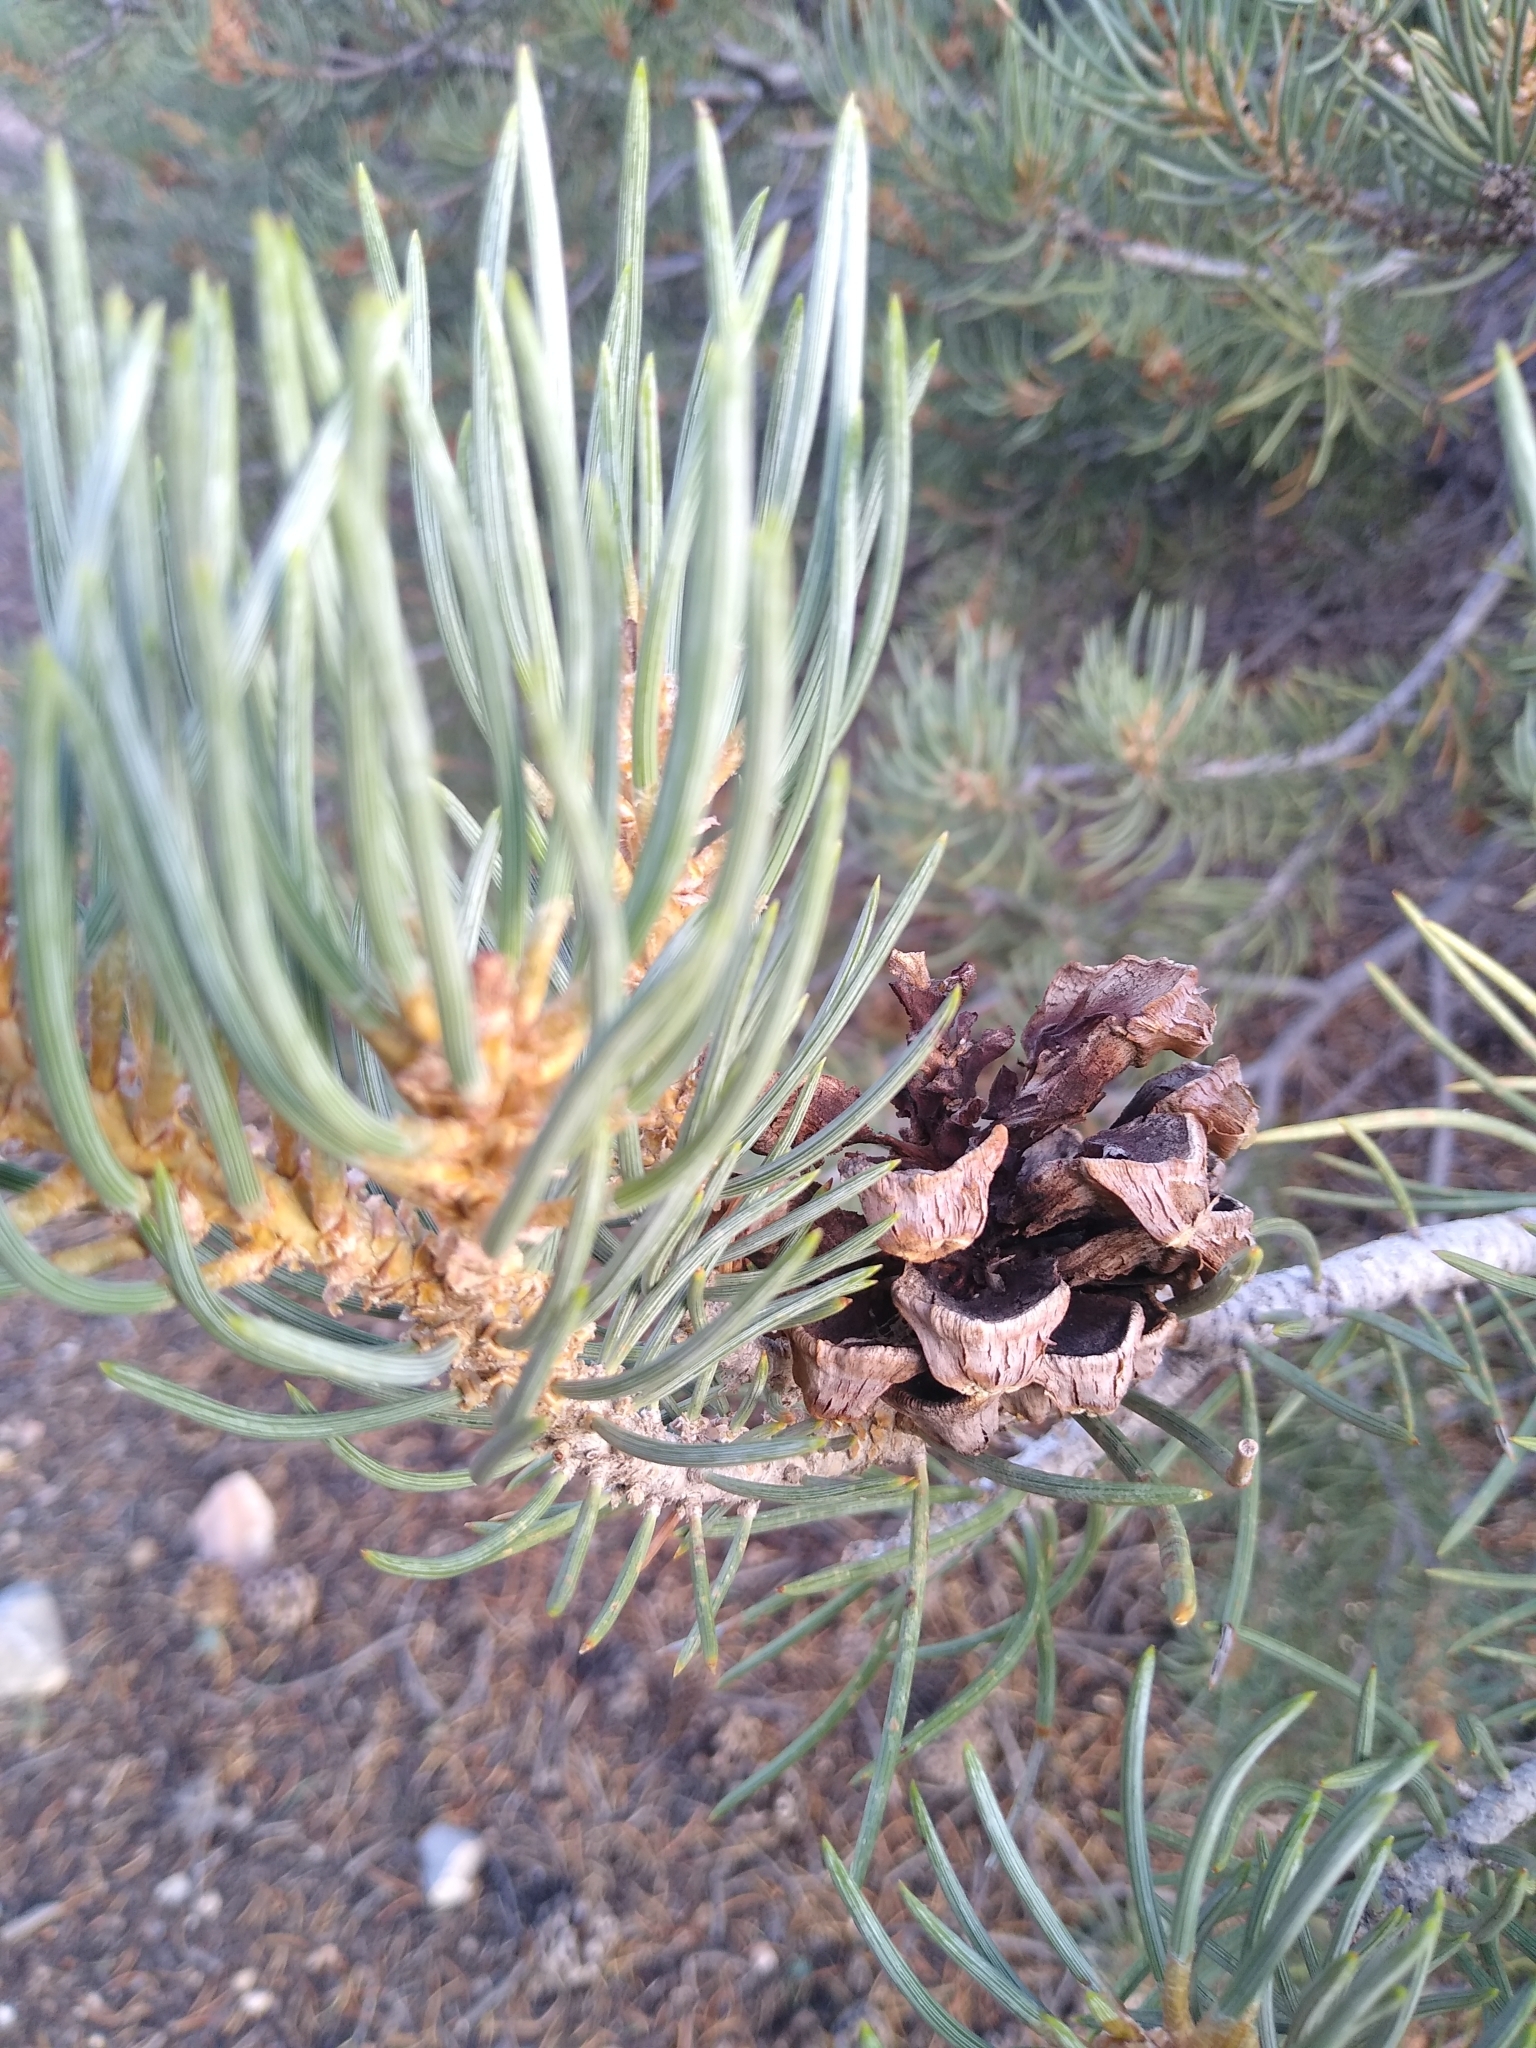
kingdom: Plantae
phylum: Tracheophyta
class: Pinopsida
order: Pinales
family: Pinaceae
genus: Pinus
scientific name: Pinus monophylla
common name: One-leaved nut pine
